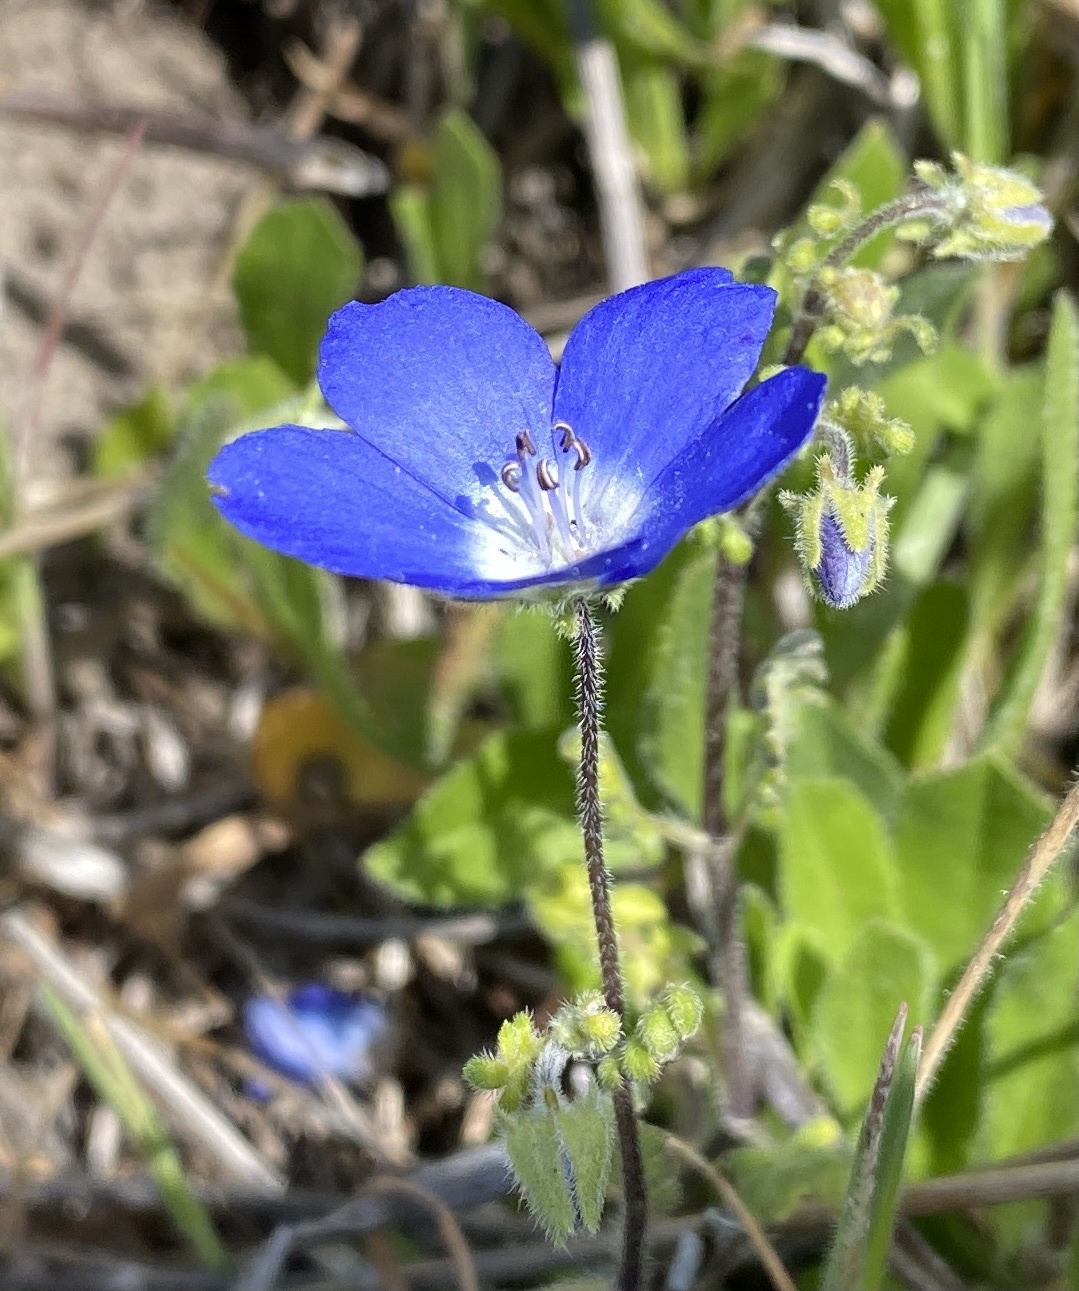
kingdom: Plantae
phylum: Tracheophyta
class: Magnoliopsida
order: Boraginales
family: Hydrophyllaceae
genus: Nemophila
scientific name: Nemophila menziesii
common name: Baby's-blue-eyes
